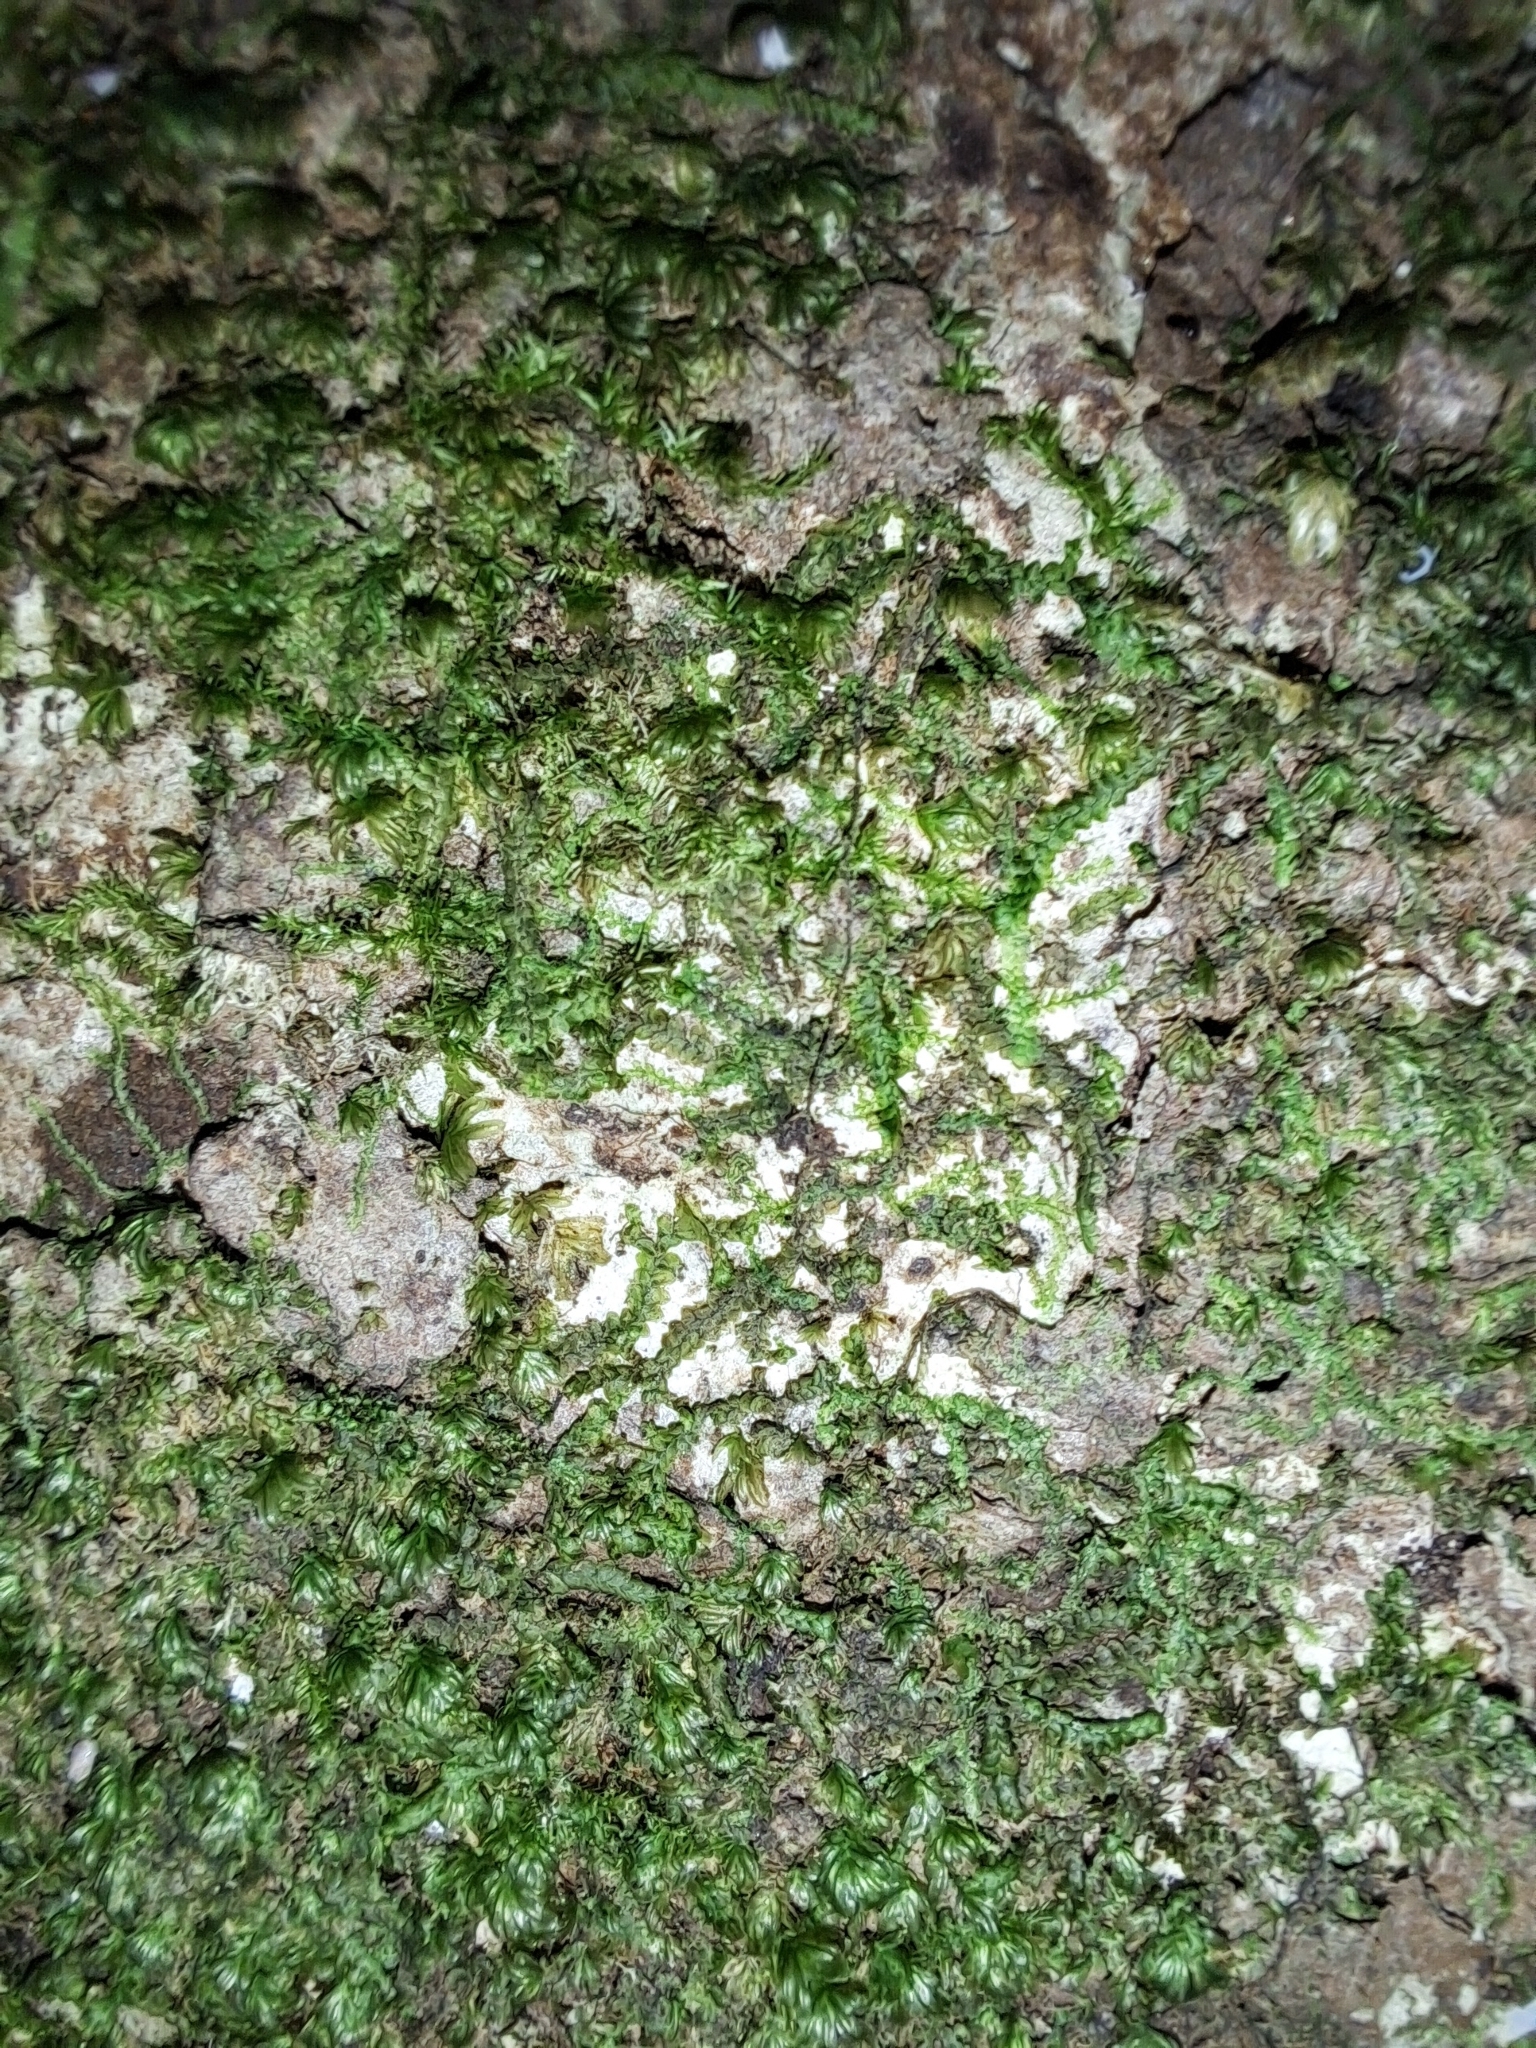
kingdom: Plantae
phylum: Bryophyta
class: Bryopsida
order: Dicranales
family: Fissidentaceae
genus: Fissidens
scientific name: Fissidens ah-pengae
